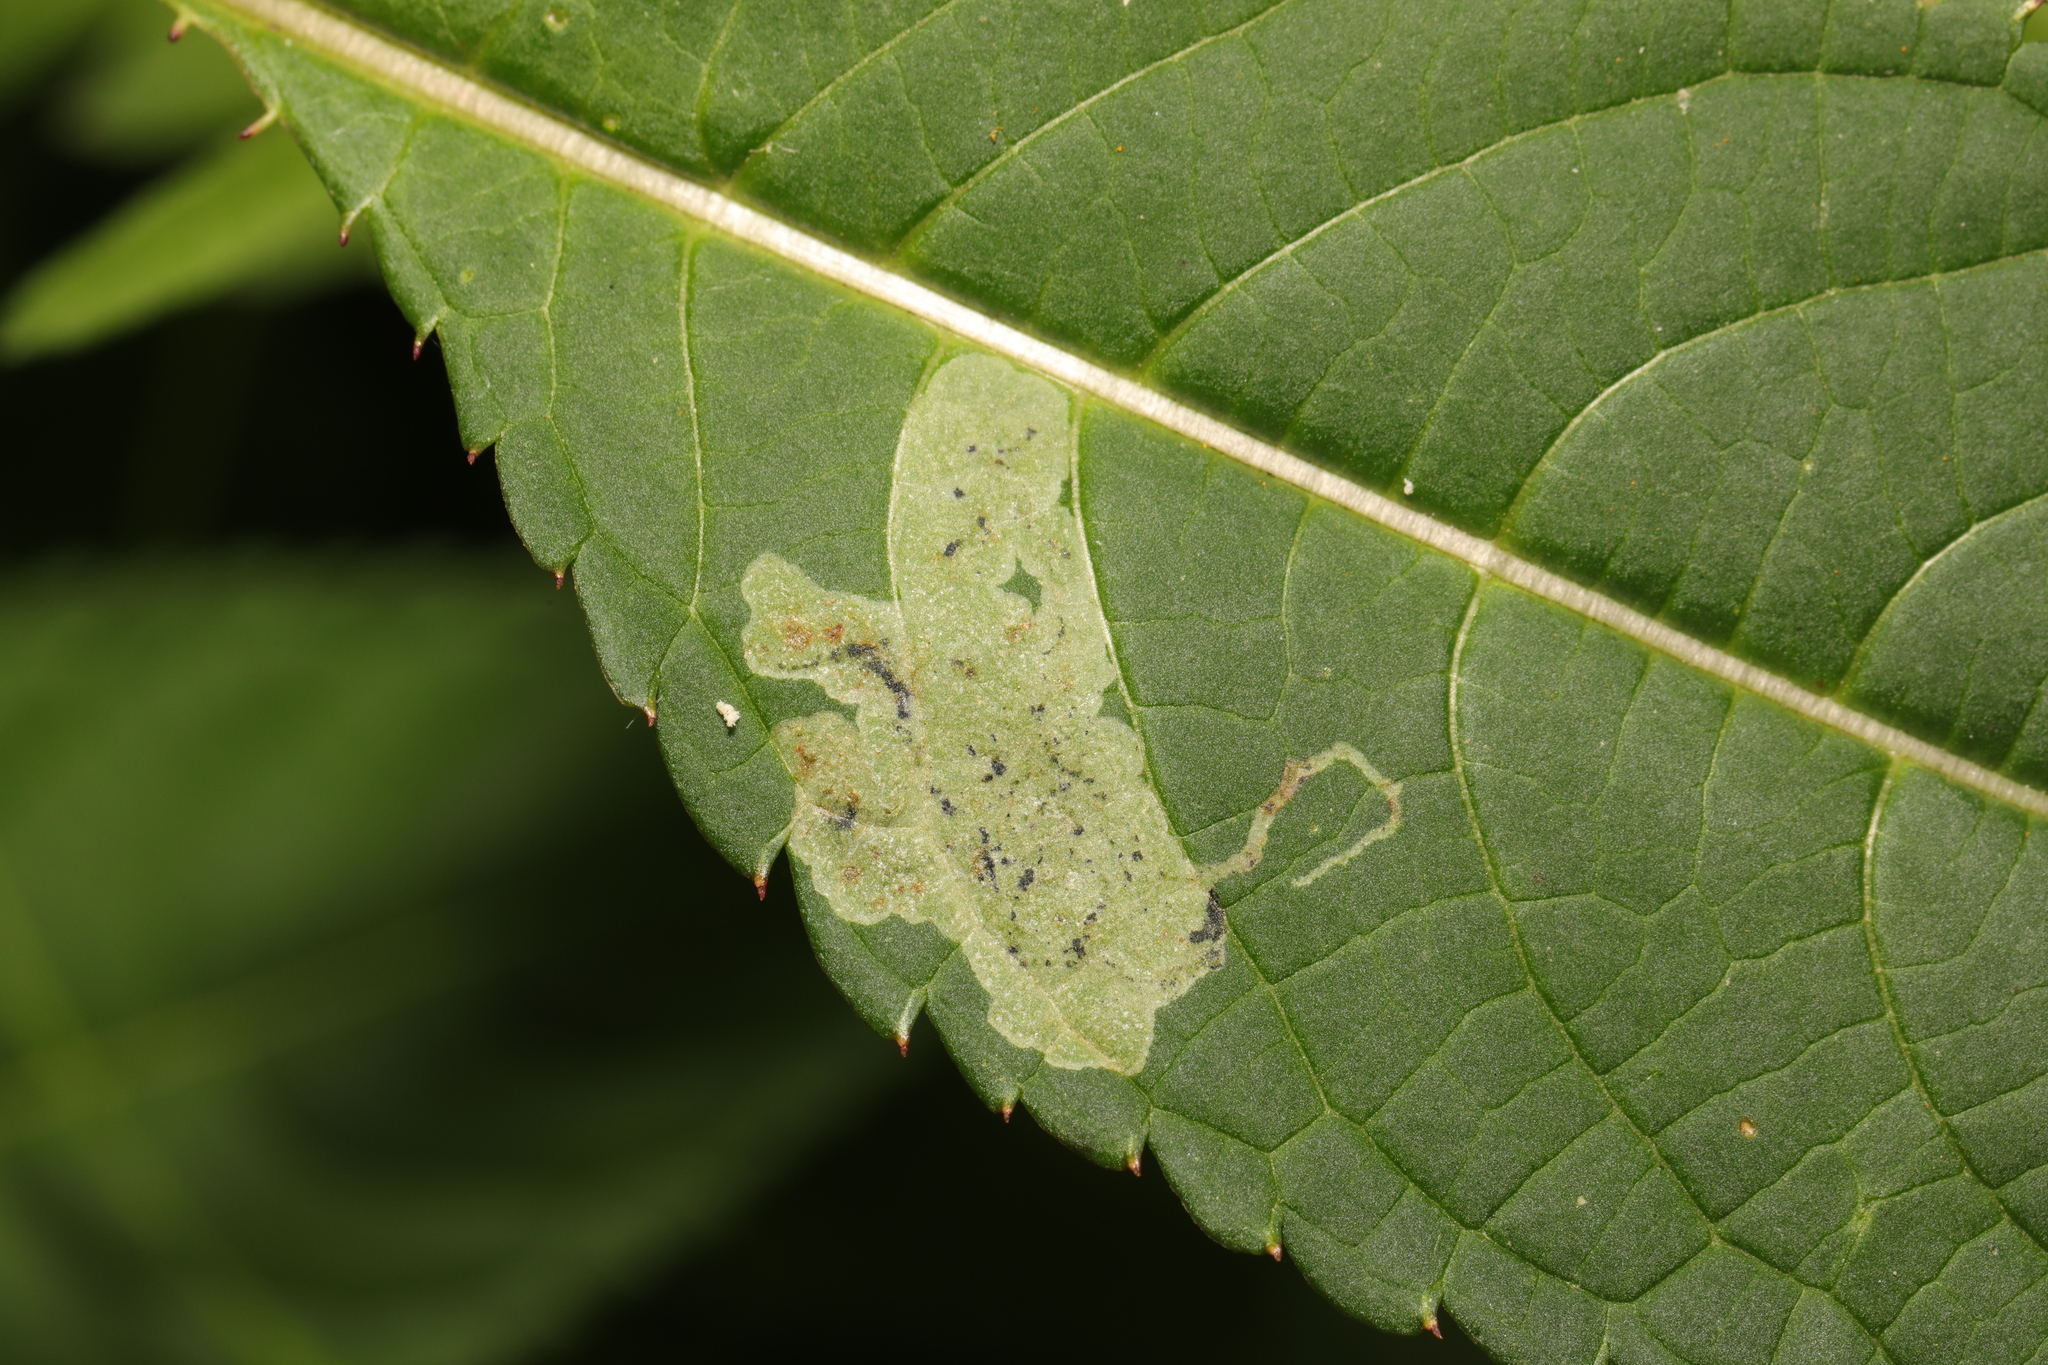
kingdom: Animalia
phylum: Arthropoda
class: Insecta
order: Diptera
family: Agromyzidae
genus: Phytoliriomyza
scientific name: Phytoliriomyza melampyga
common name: Jewelweed leaf-miner fly
